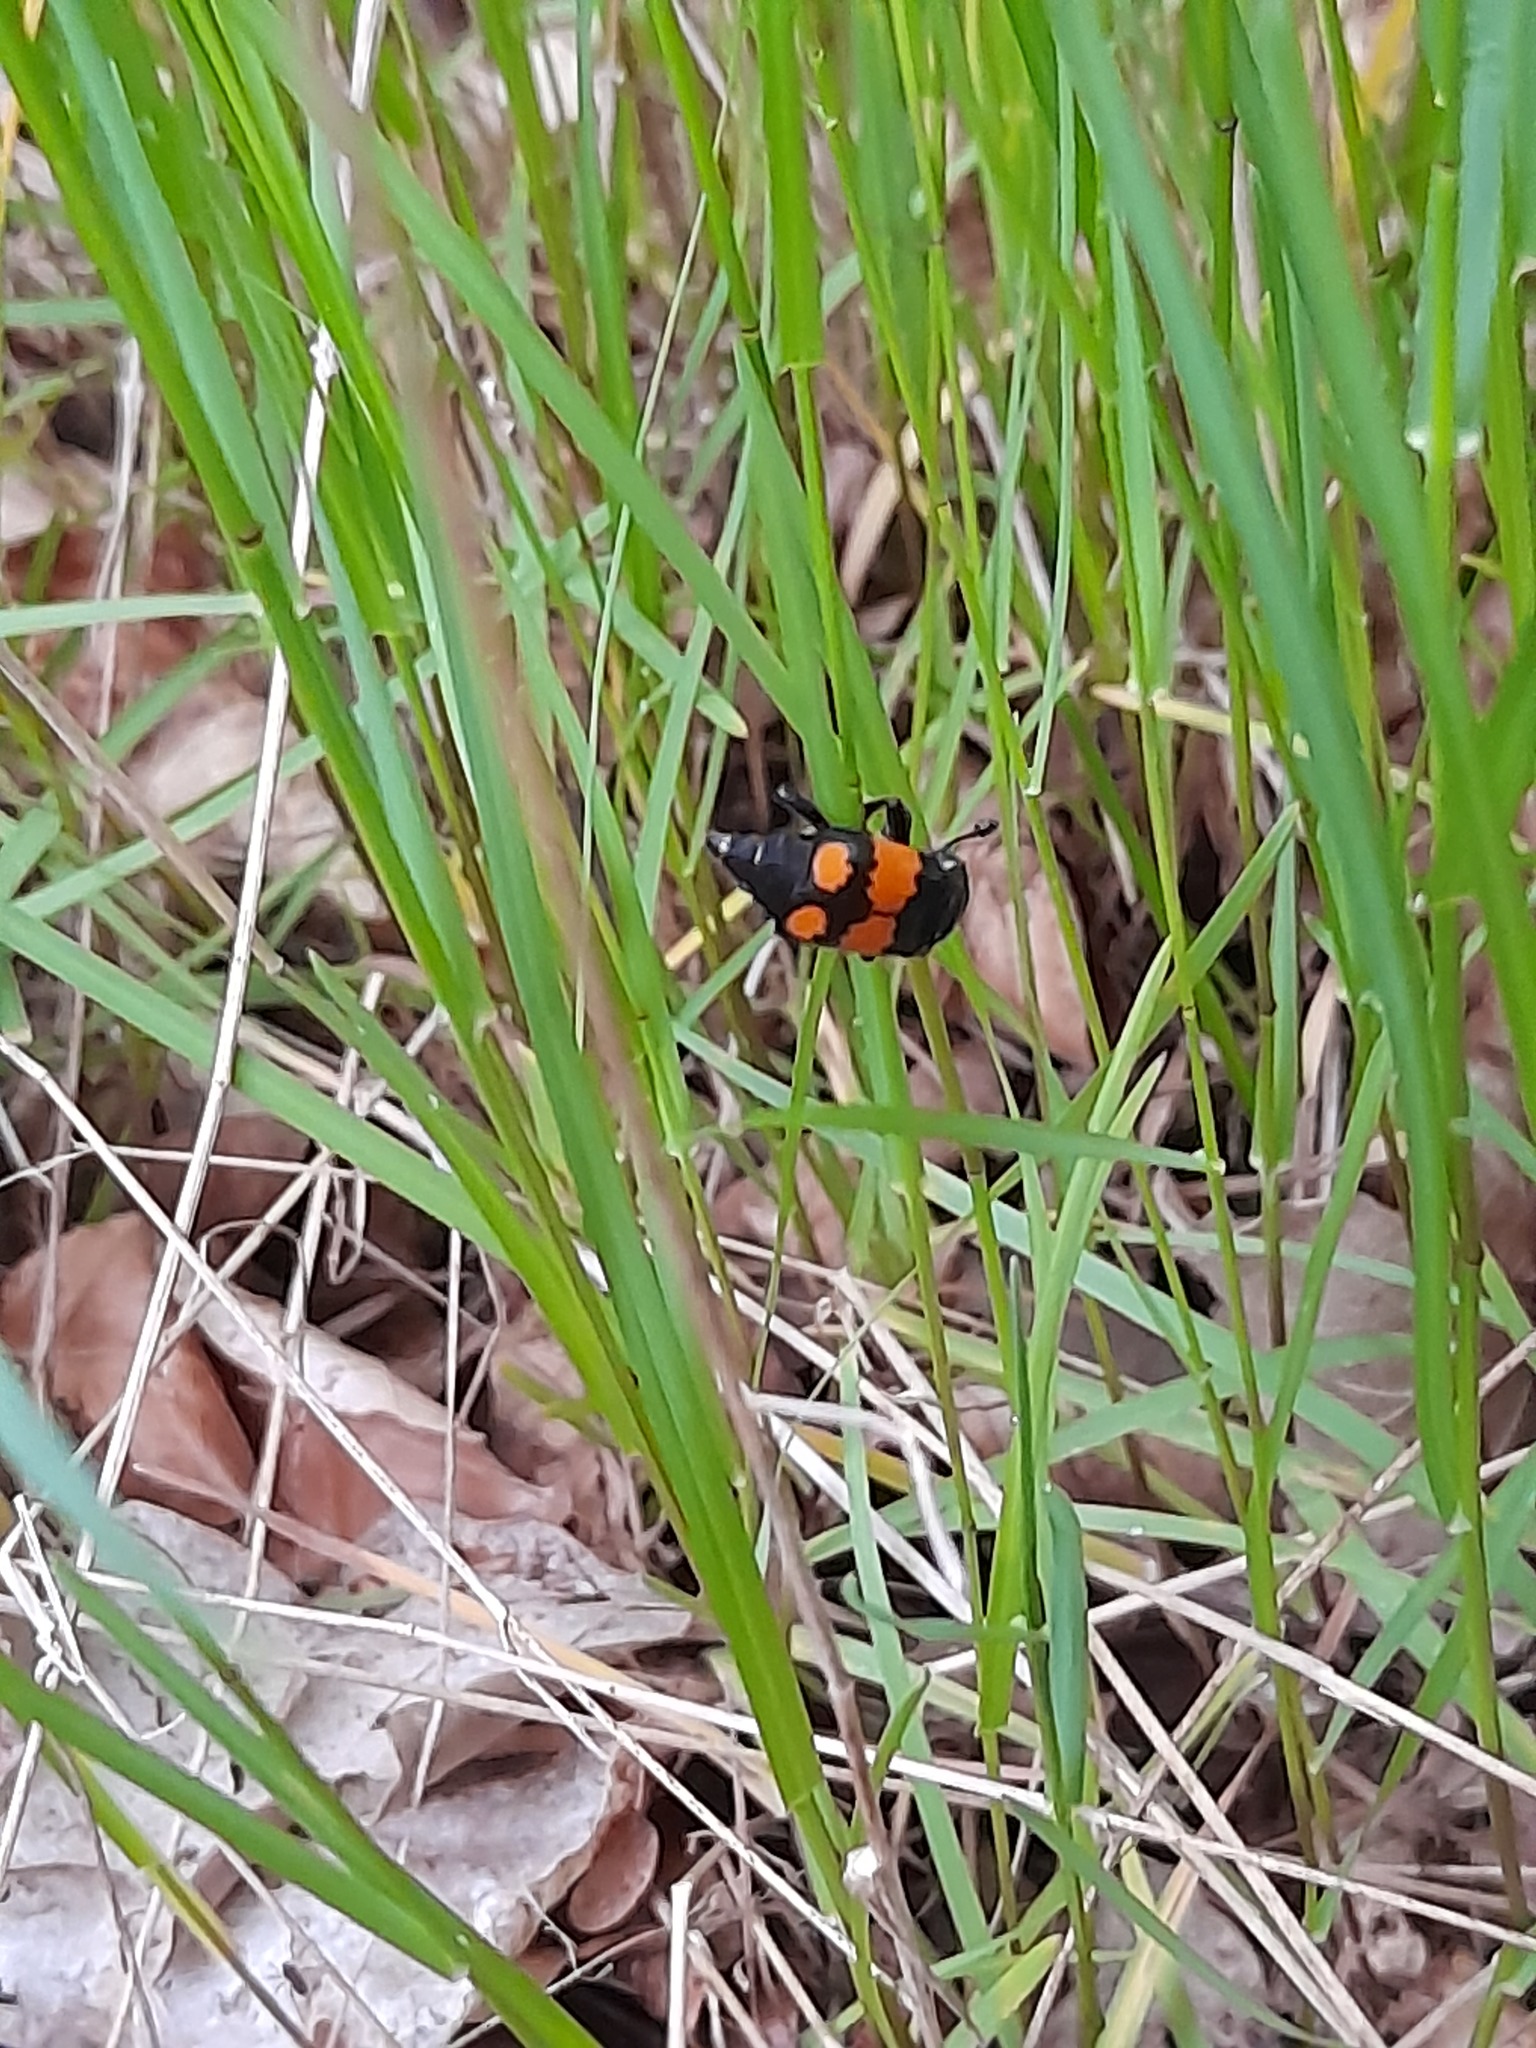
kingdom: Animalia
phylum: Arthropoda
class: Insecta
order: Coleoptera
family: Staphylinidae
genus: Nicrophorus
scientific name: Nicrophorus vespilloides
